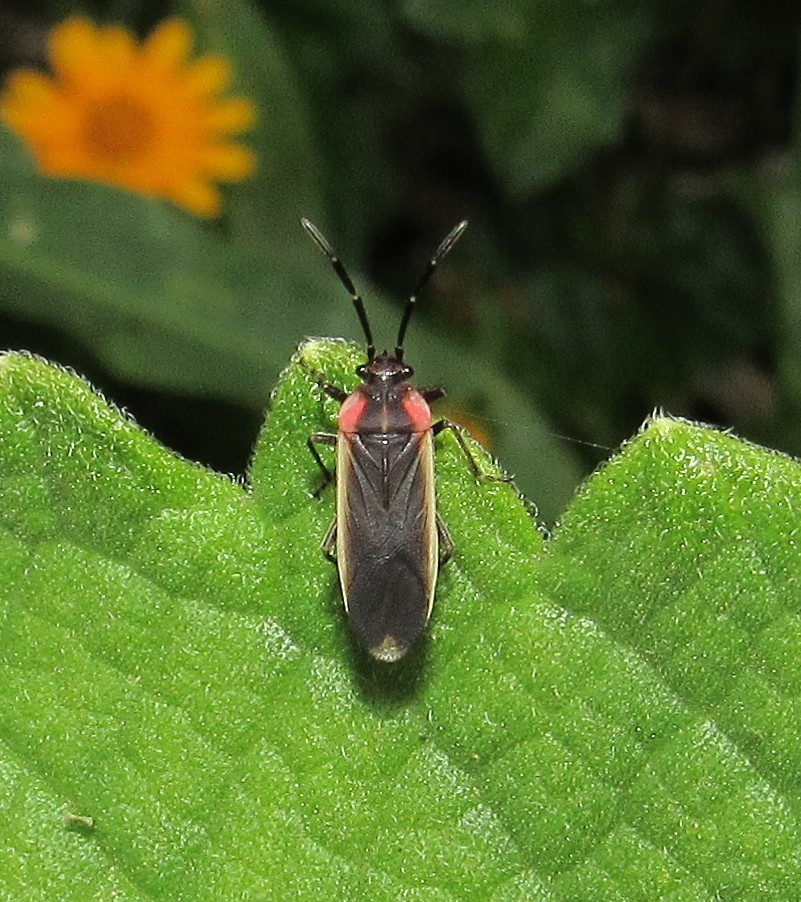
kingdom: Animalia
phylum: Arthropoda
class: Insecta
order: Hemiptera
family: Lygaeidae
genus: Acroleucus
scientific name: Acroleucus coxalis
